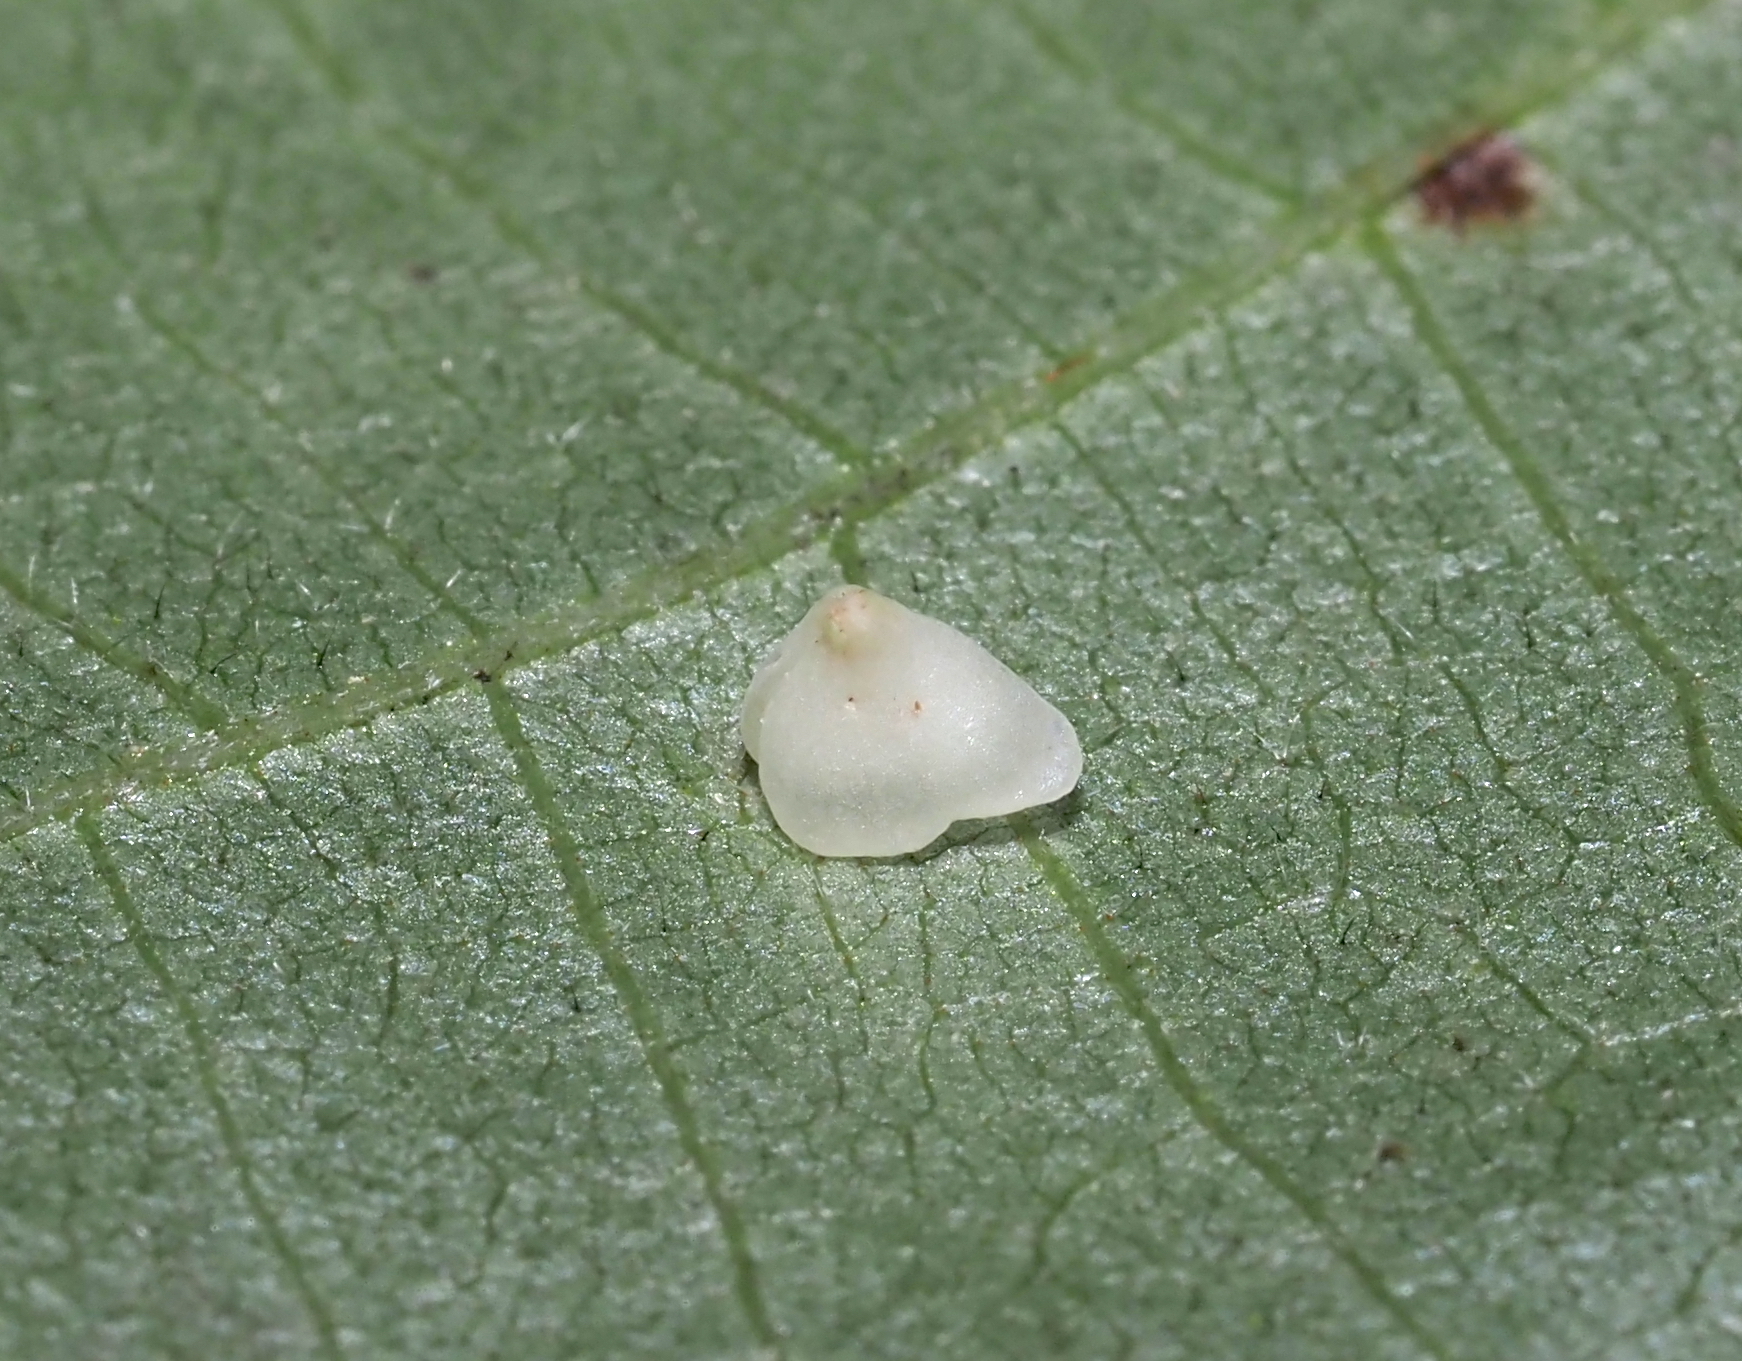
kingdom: Animalia
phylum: Arthropoda
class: Insecta
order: Diptera
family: Cecidomyiidae
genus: Caryomyia
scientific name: Caryomyia sanguinolenta
